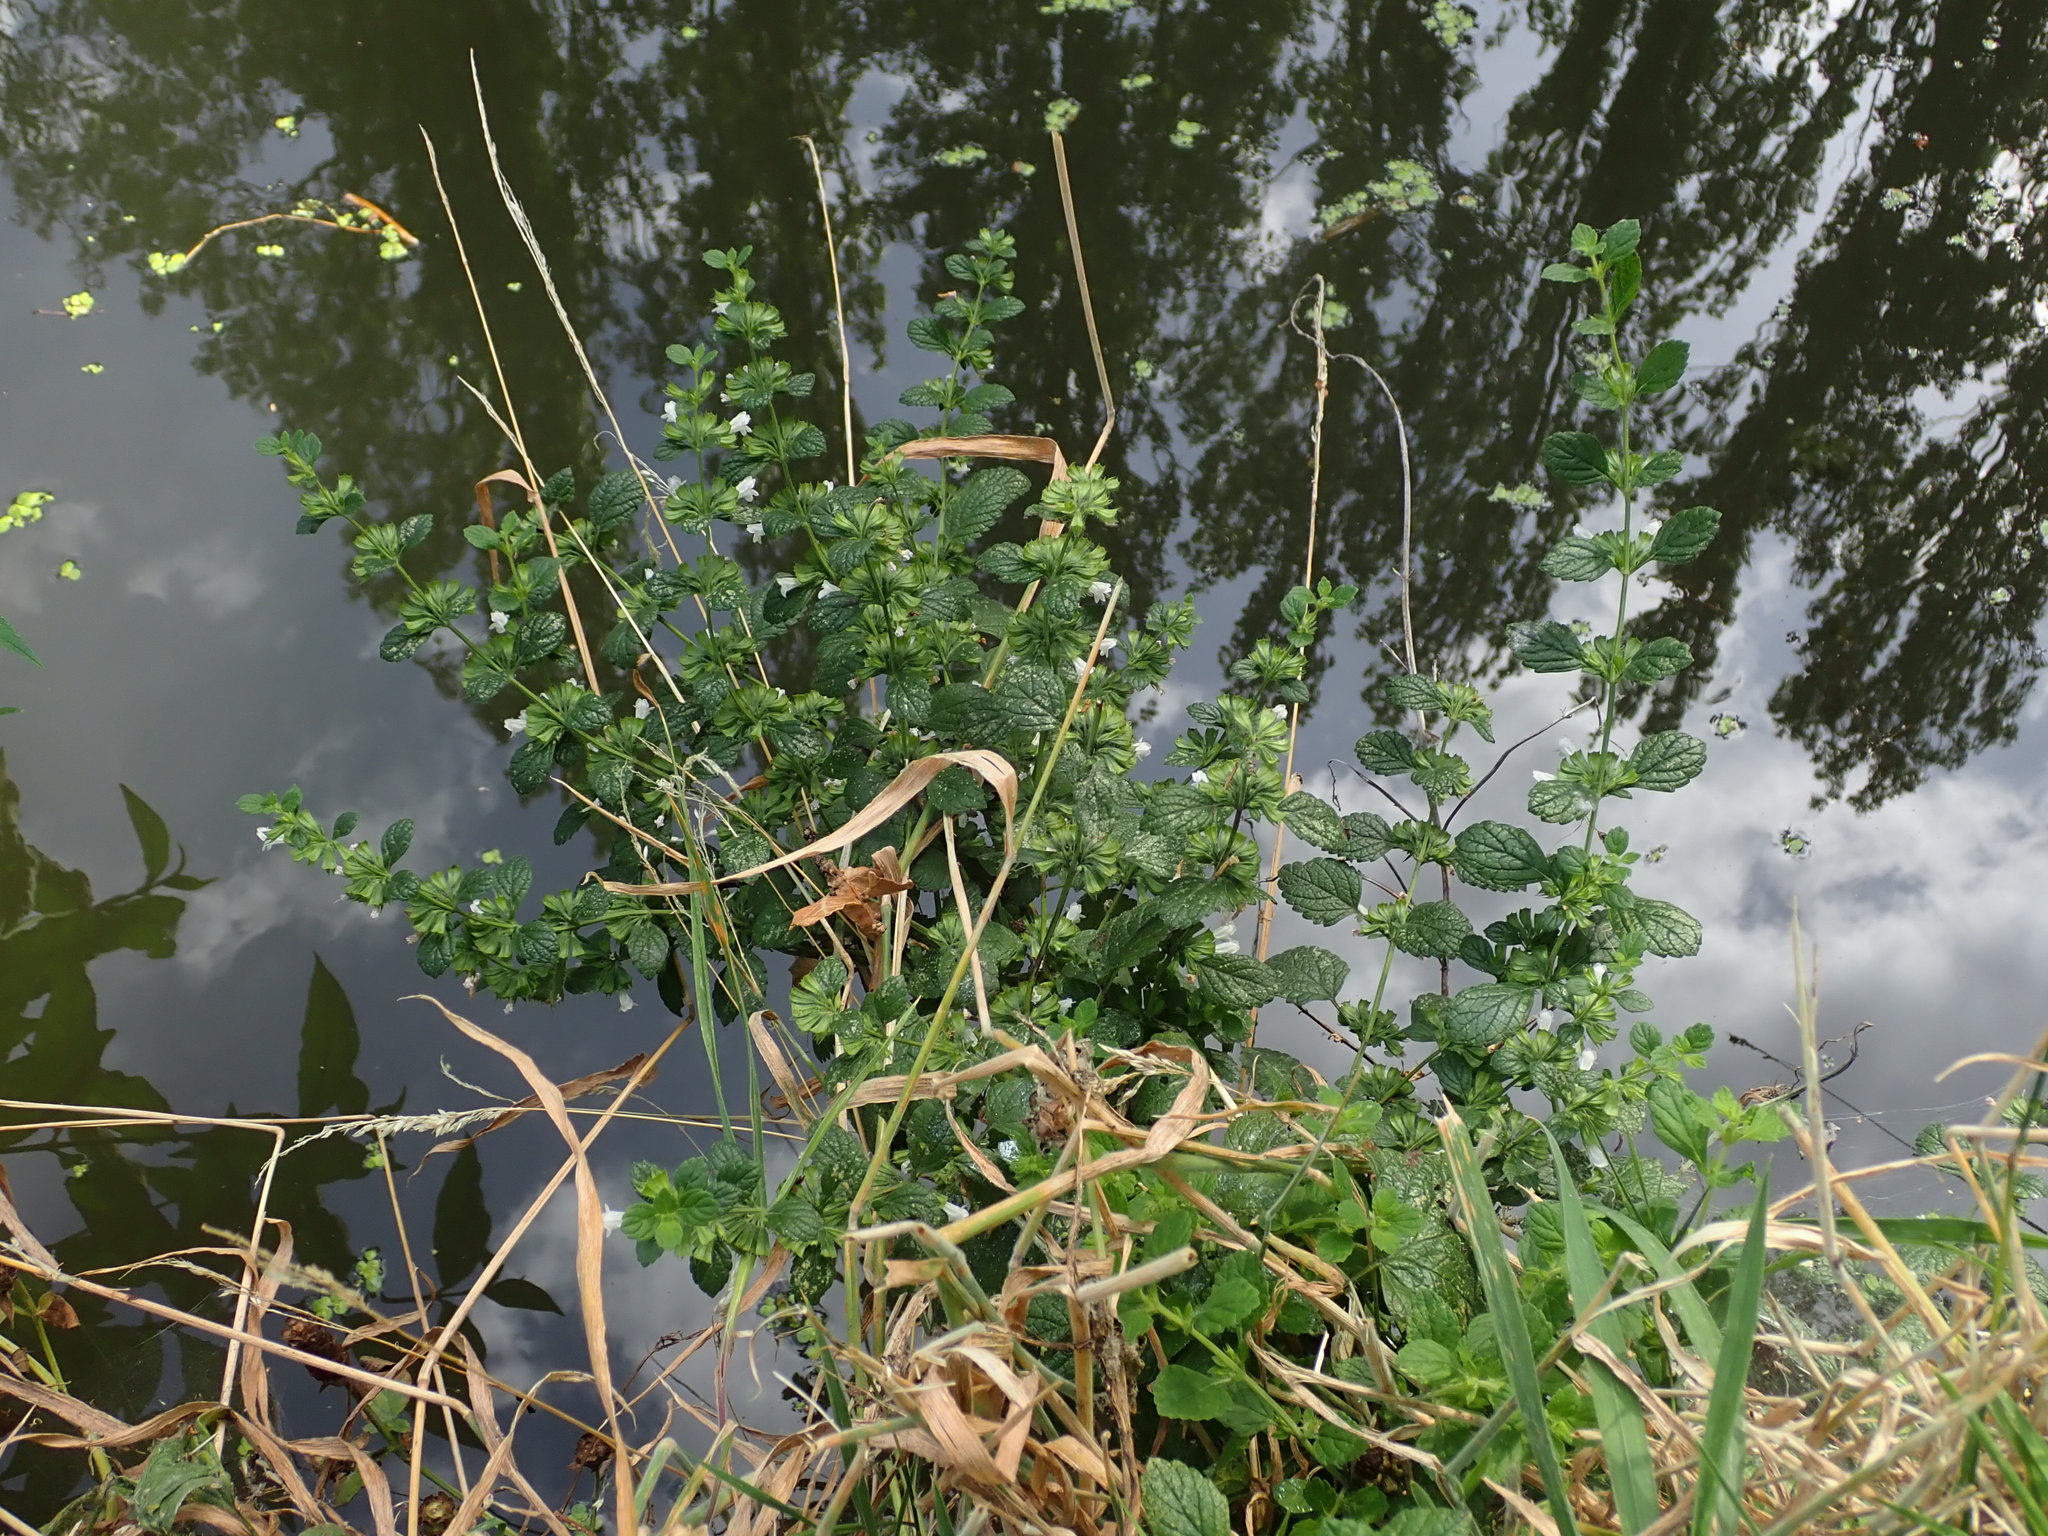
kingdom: Plantae
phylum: Tracheophyta
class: Magnoliopsida
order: Lamiales
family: Lamiaceae
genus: Melissa
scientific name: Melissa officinalis
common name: Balm
